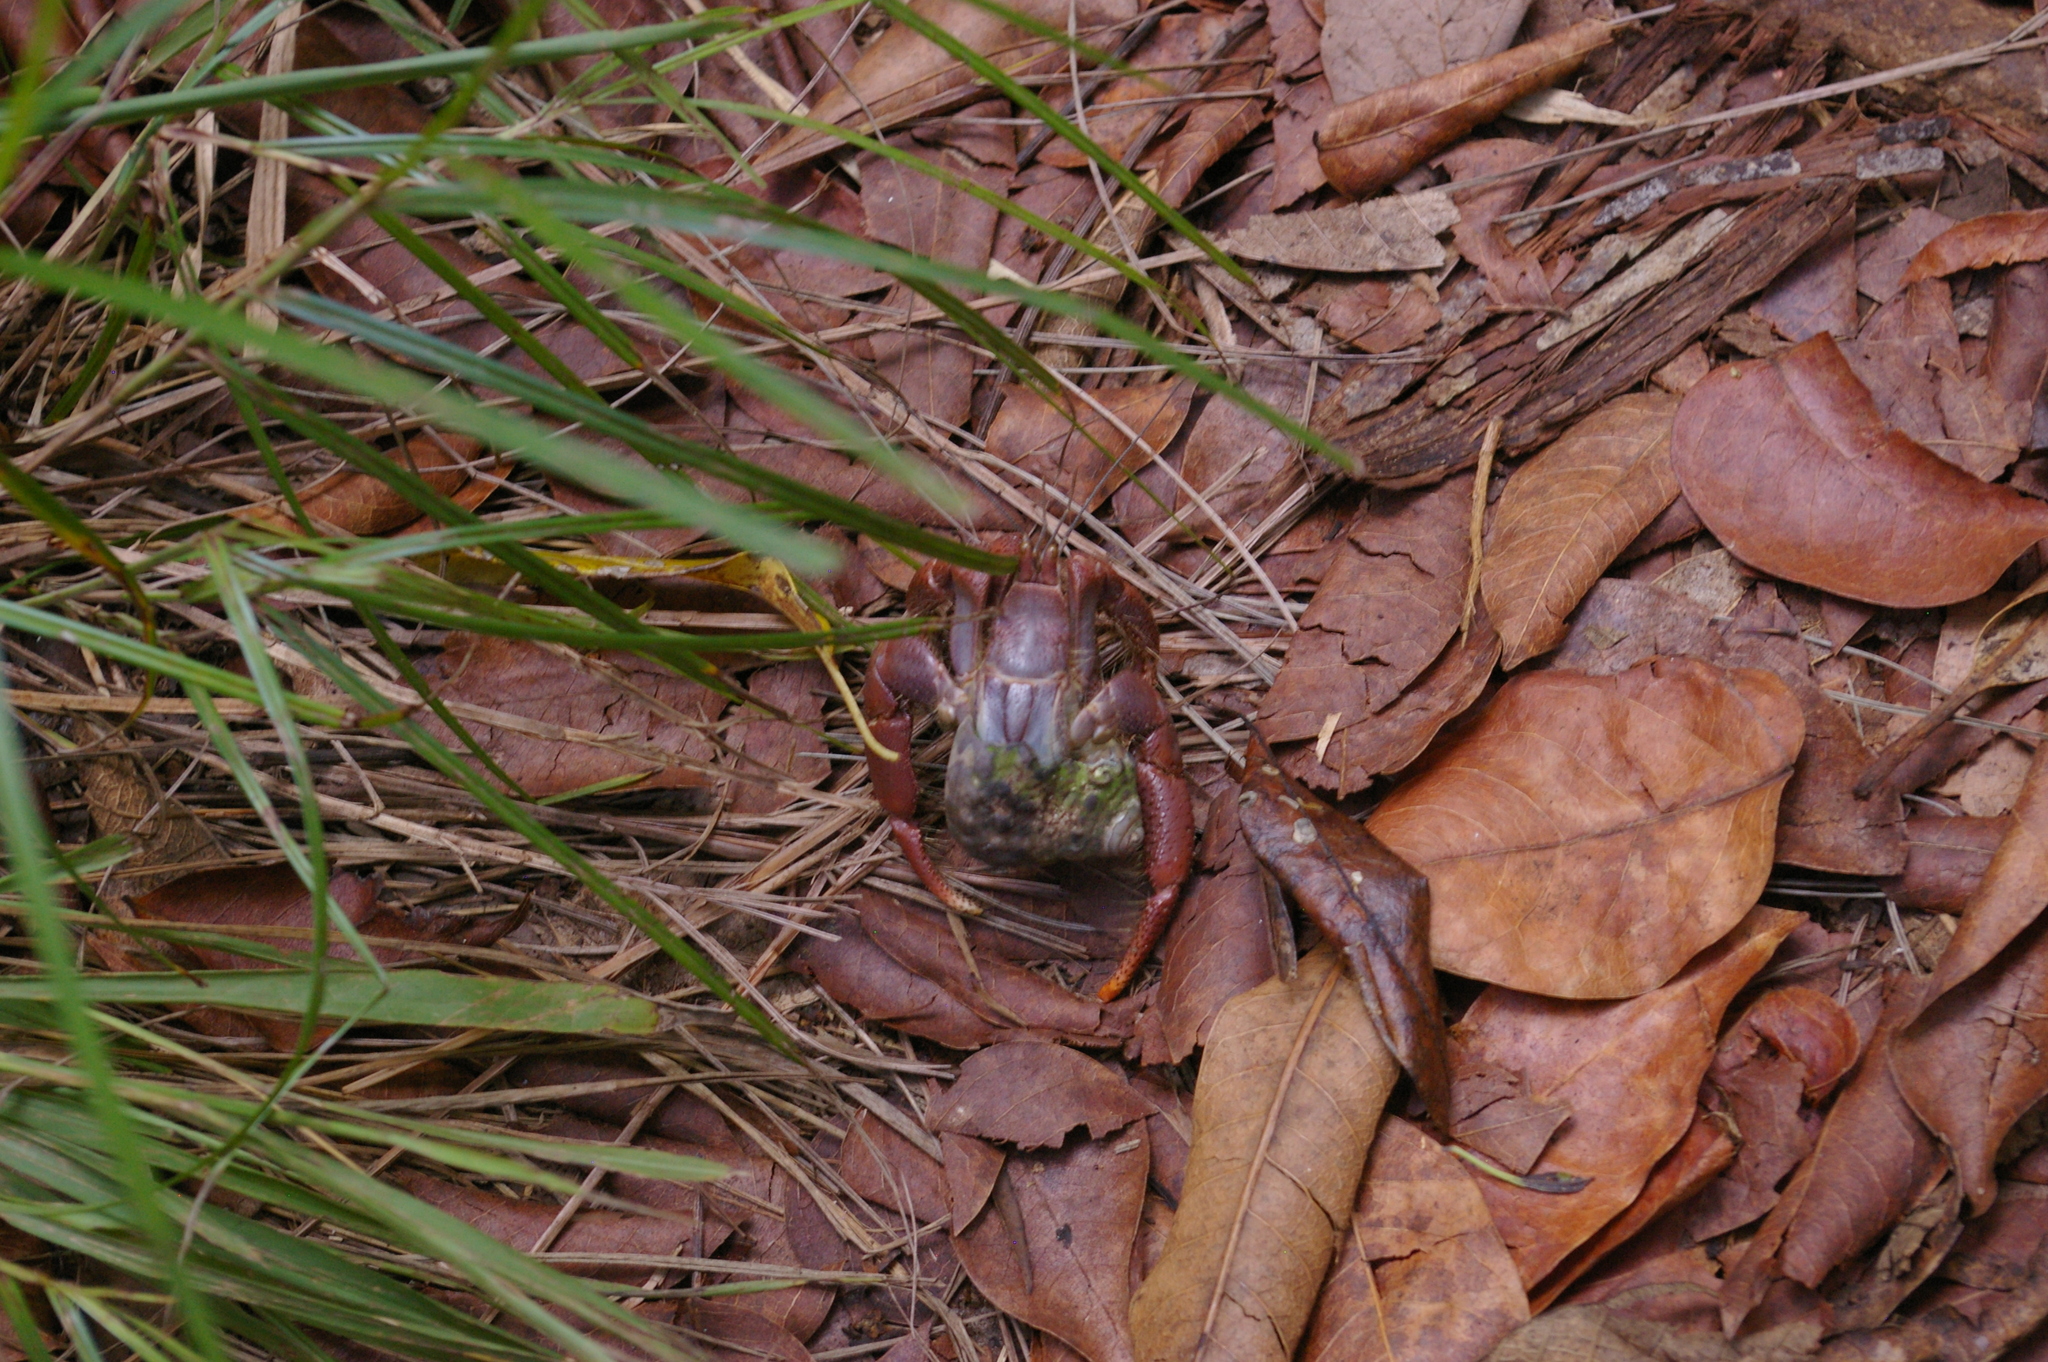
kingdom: Animalia
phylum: Arthropoda
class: Malacostraca
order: Decapoda
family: Coenobitidae
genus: Coenobita
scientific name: Coenobita clypeatus
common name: Caribbean hermit crab
